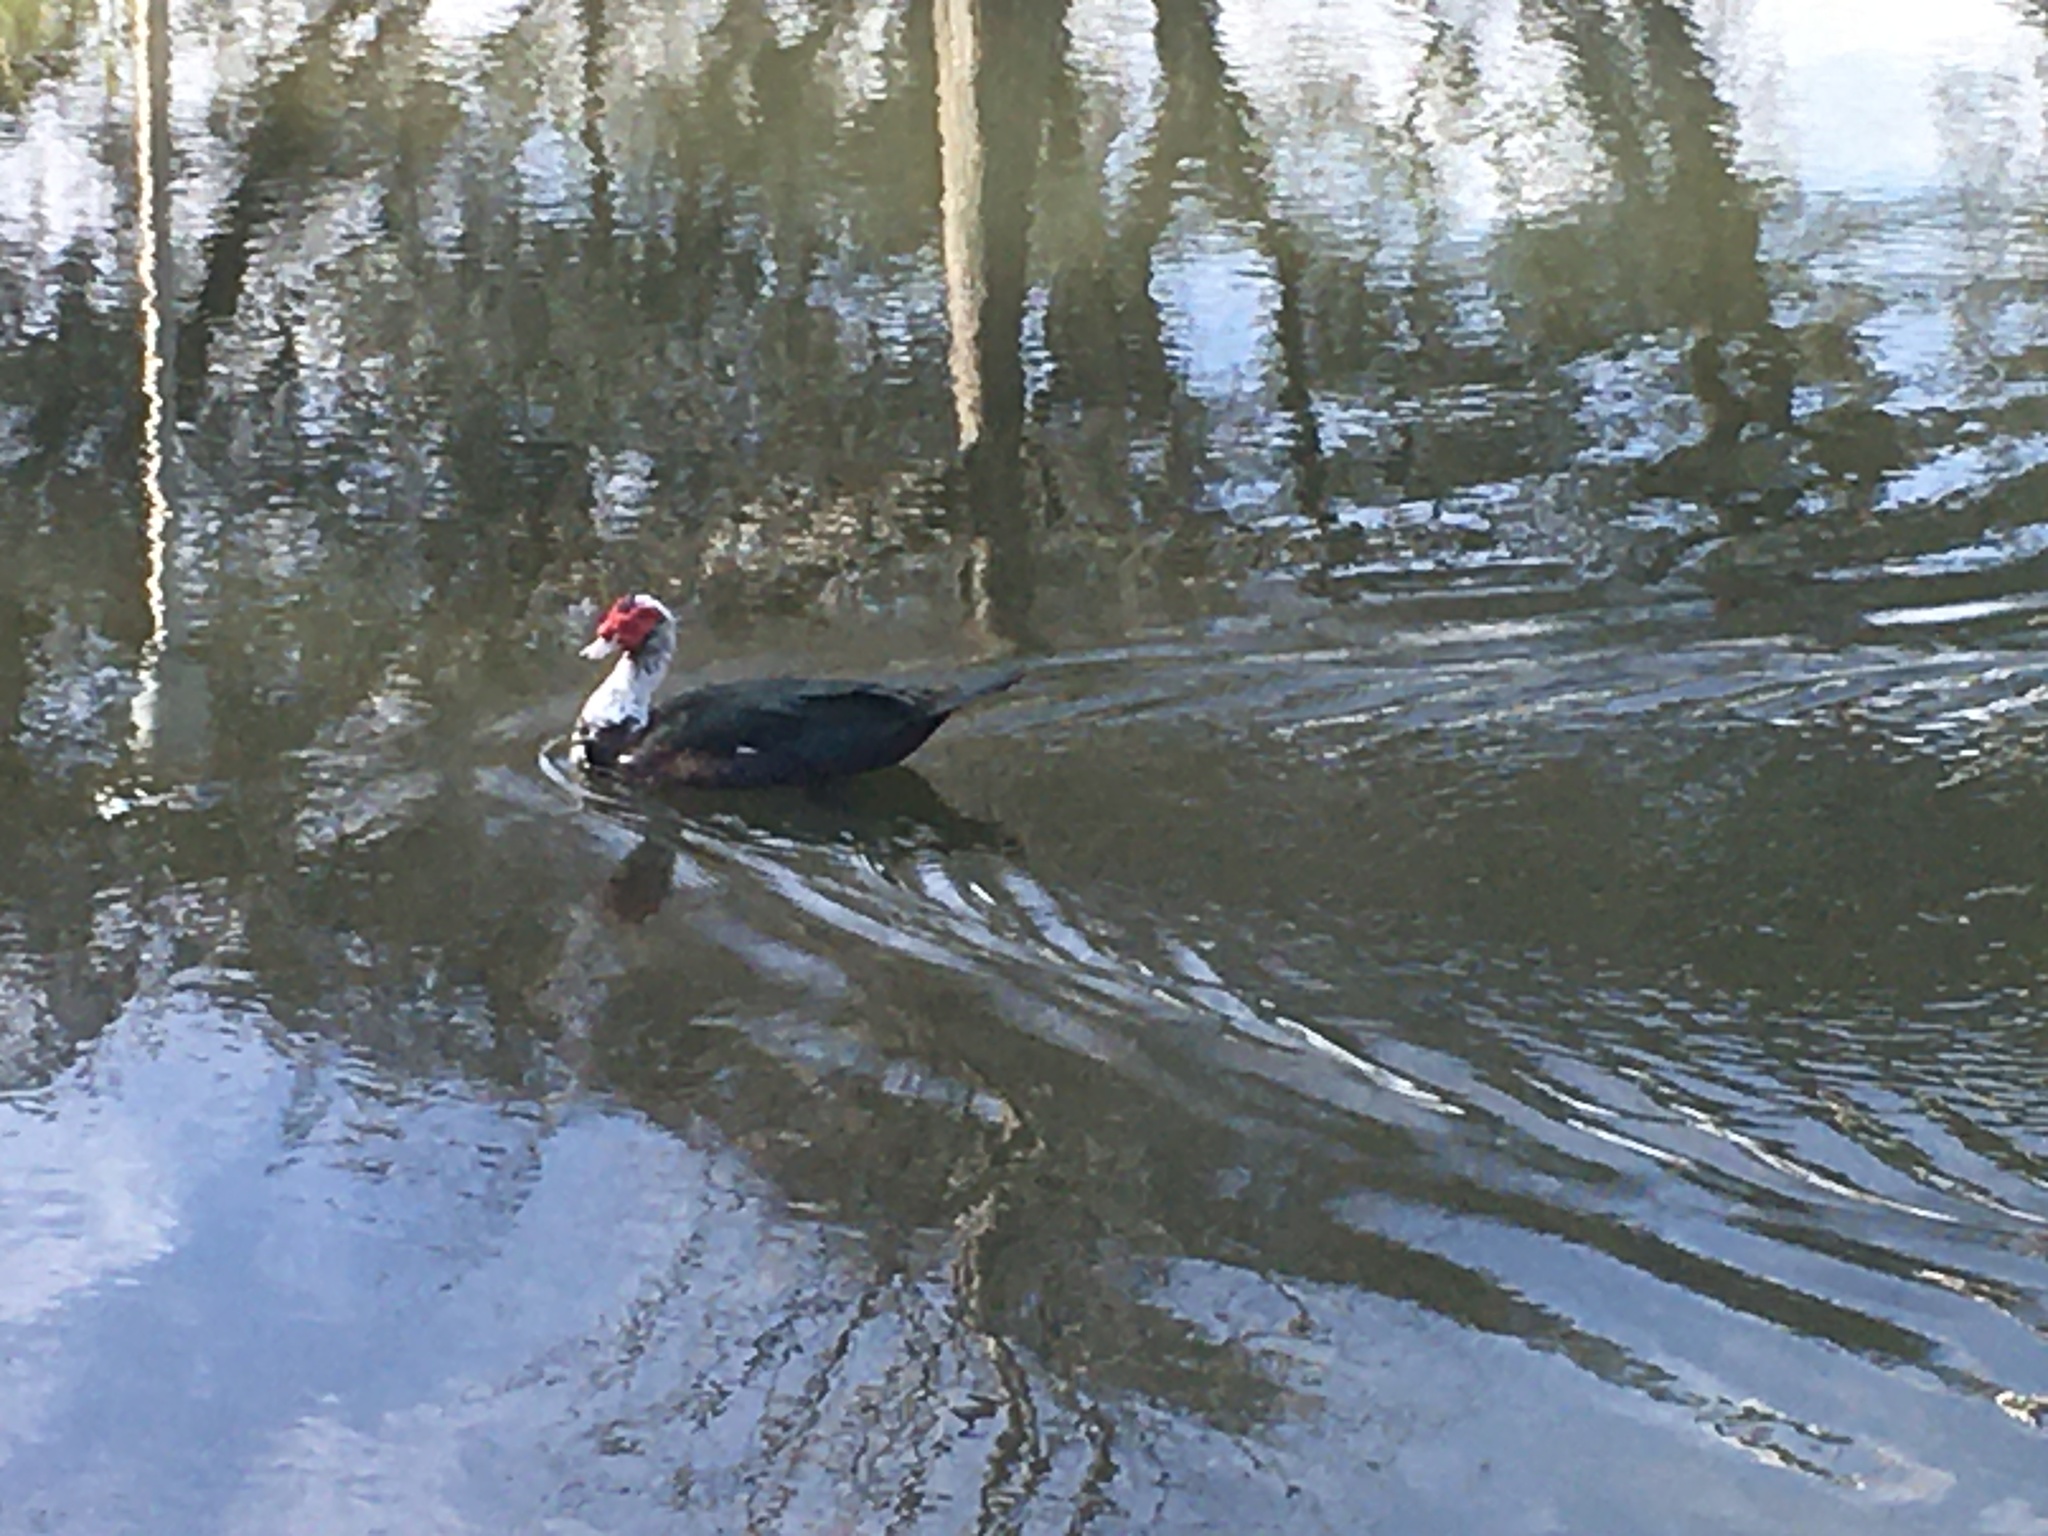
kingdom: Animalia
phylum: Chordata
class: Aves
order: Anseriformes
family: Anatidae
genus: Cairina
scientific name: Cairina moschata
